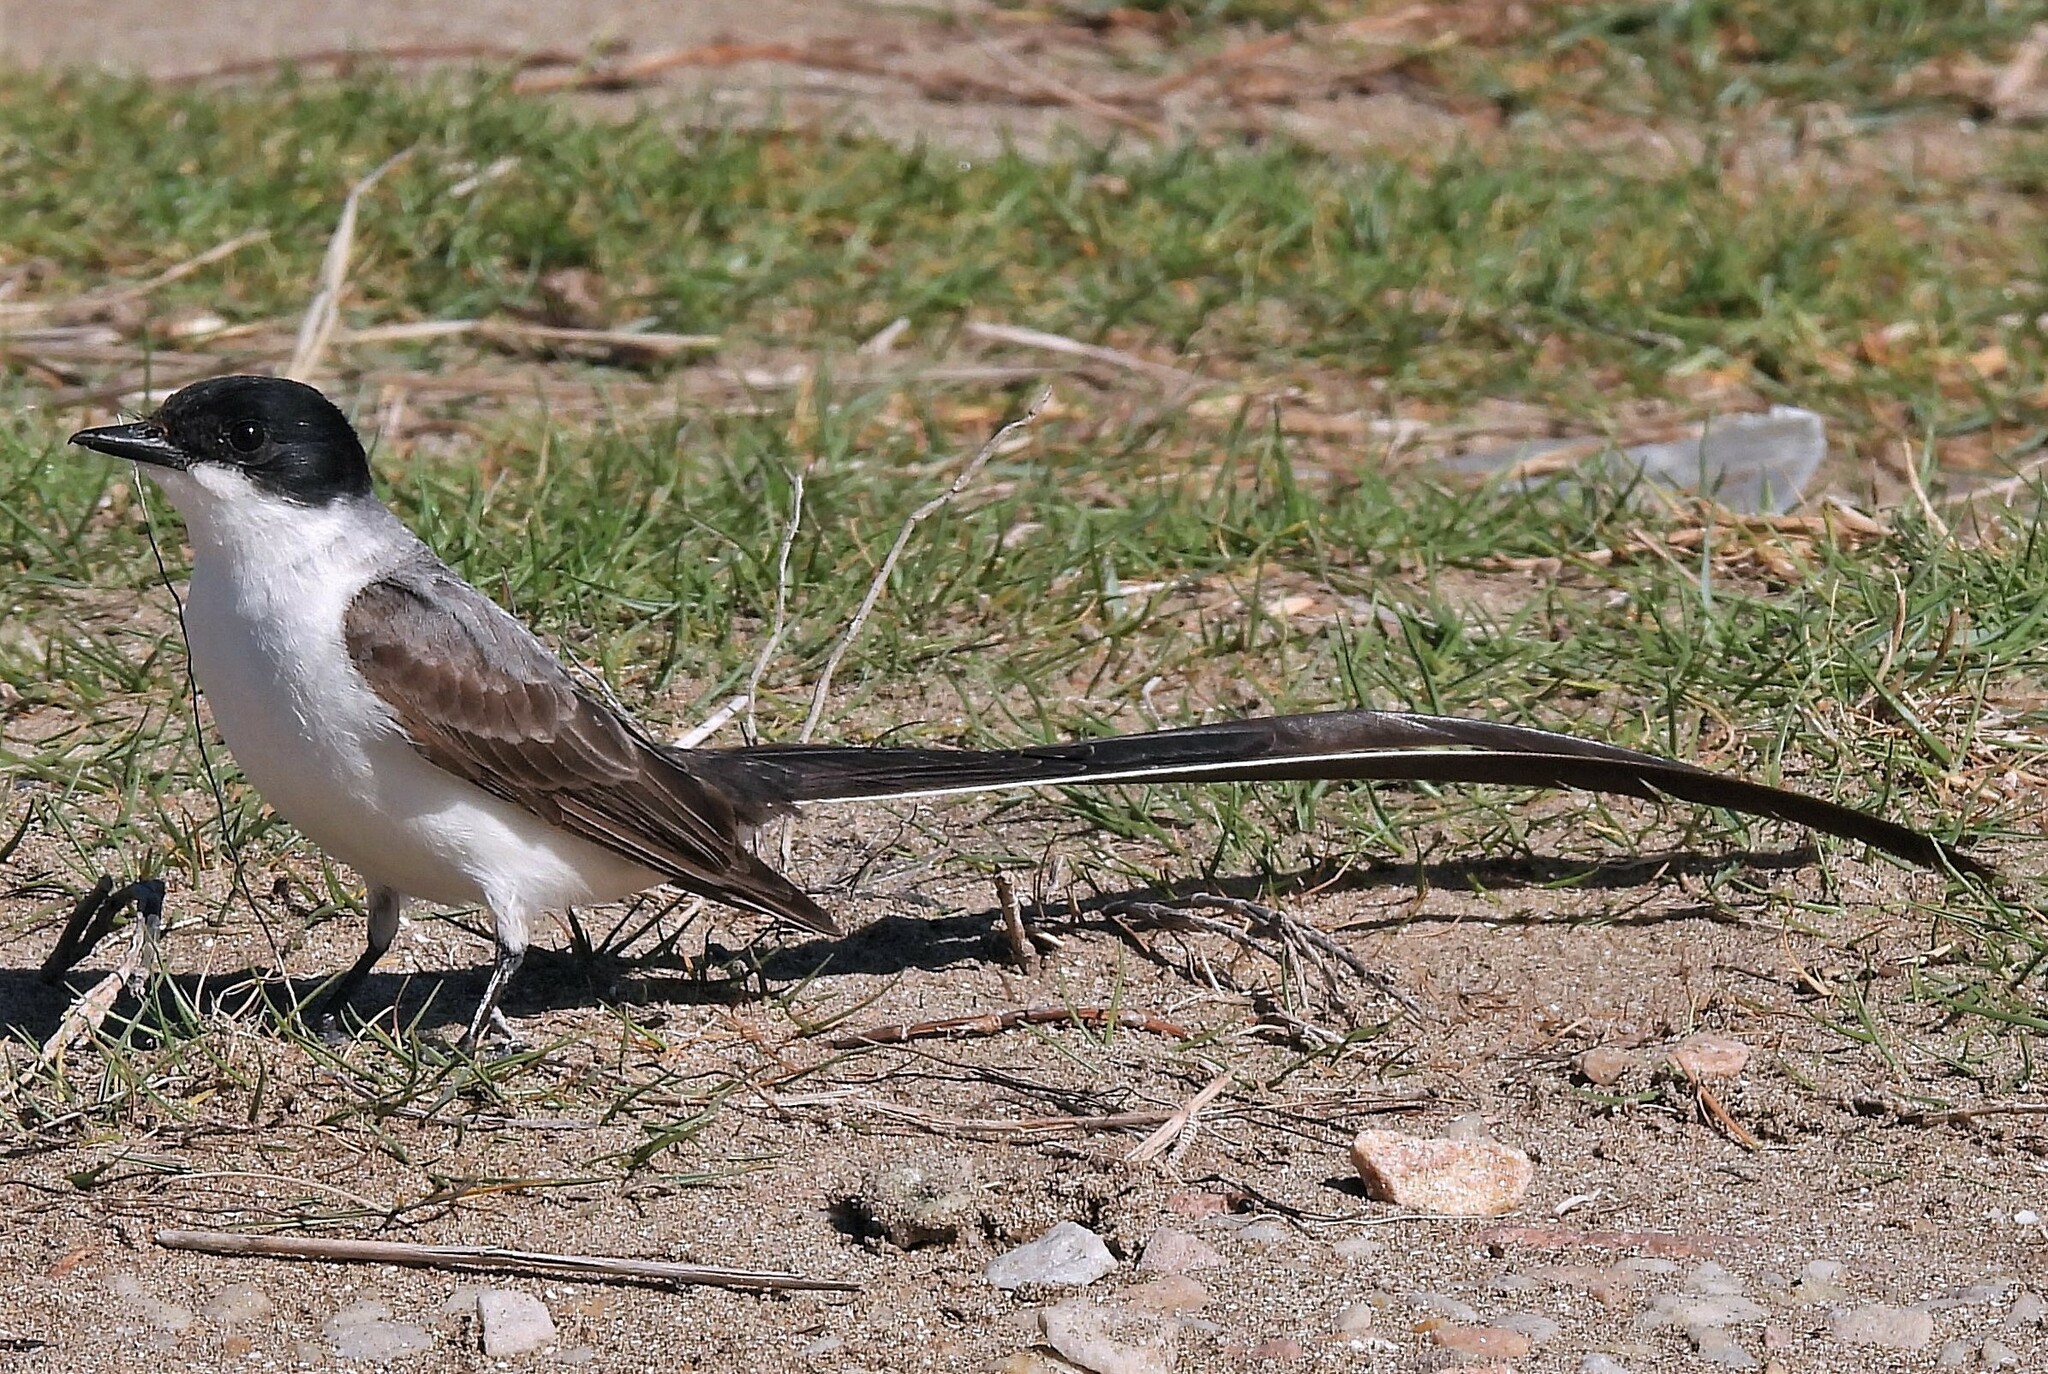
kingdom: Animalia
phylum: Chordata
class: Aves
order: Passeriformes
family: Tyrannidae
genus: Tyrannus
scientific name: Tyrannus savana
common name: Fork-tailed flycatcher
